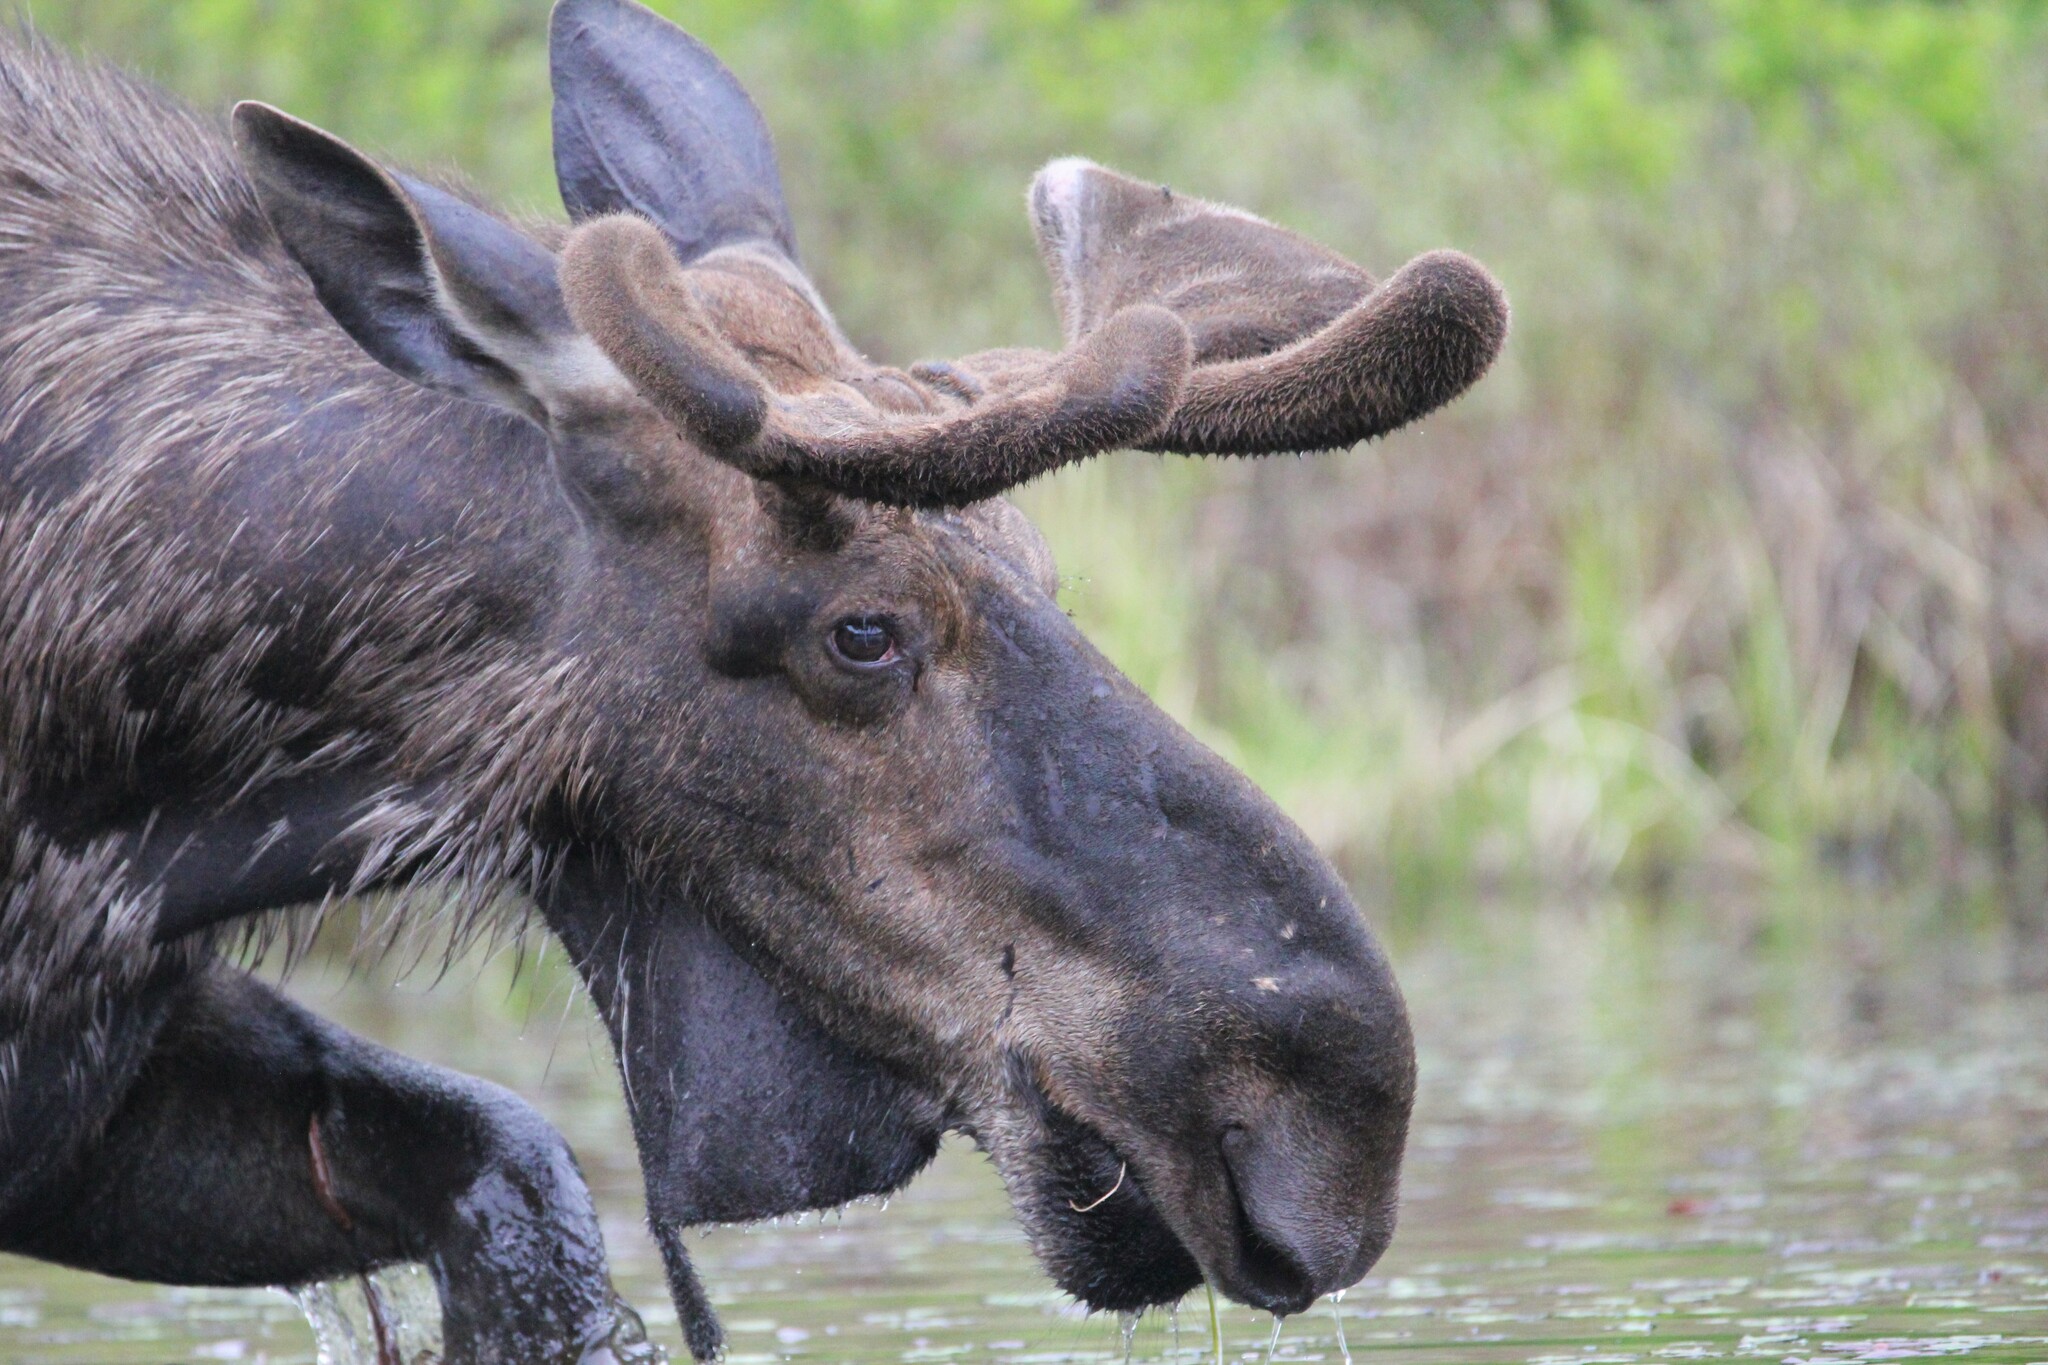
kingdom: Animalia
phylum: Chordata
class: Mammalia
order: Artiodactyla
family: Cervidae
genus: Alces
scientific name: Alces alces
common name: Moose
